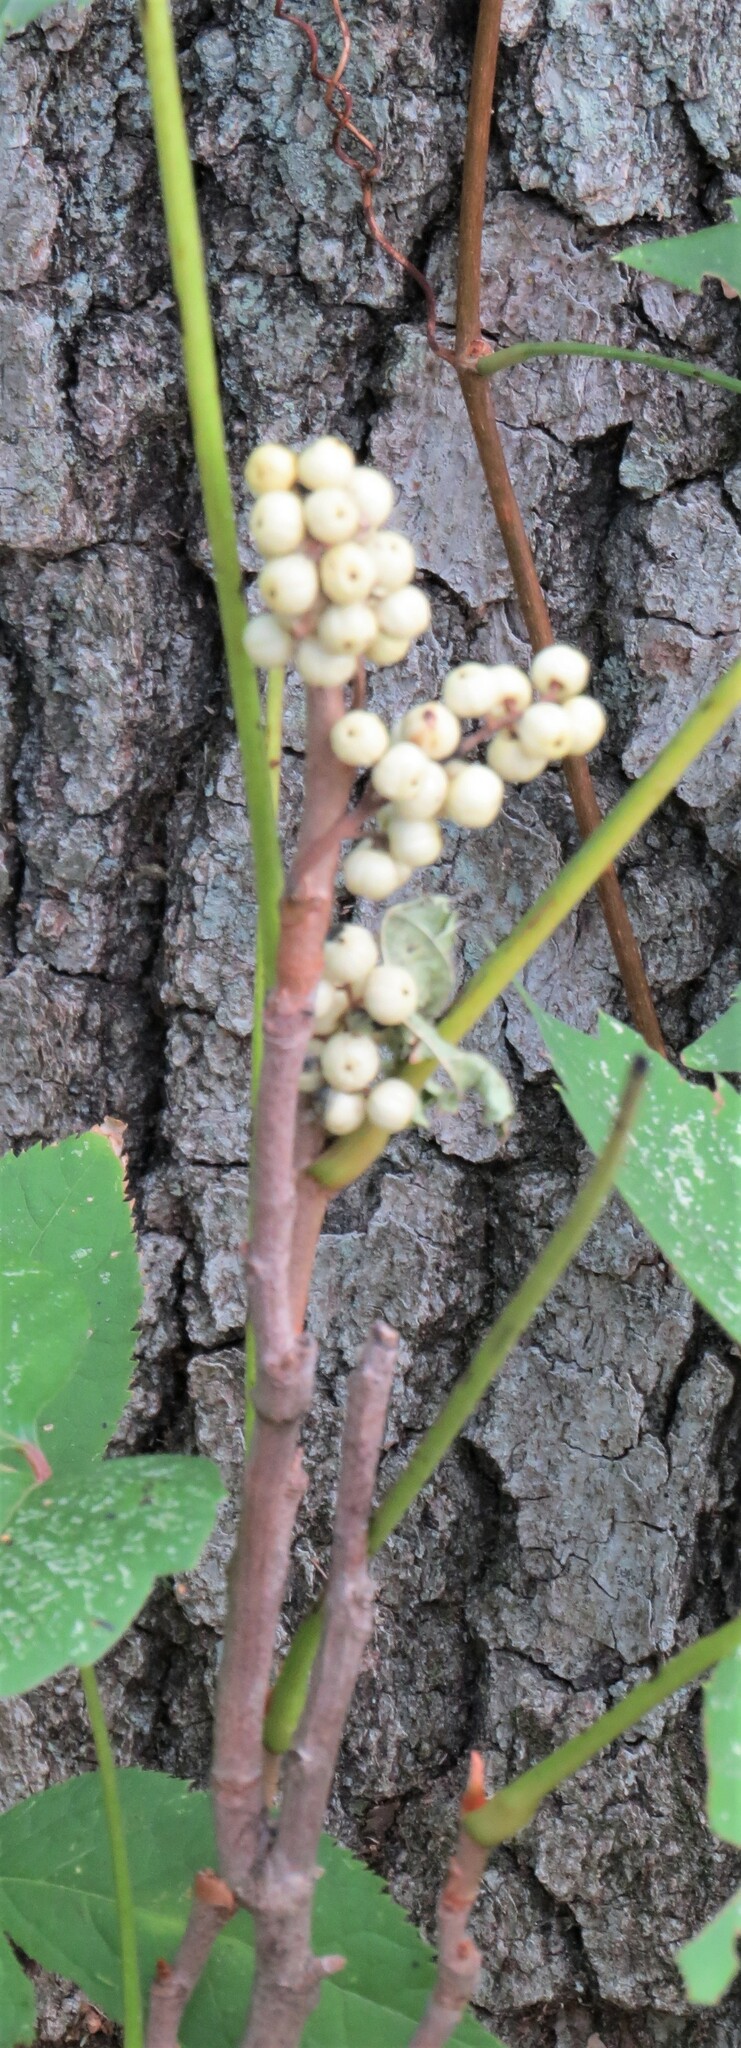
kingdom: Plantae
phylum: Tracheophyta
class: Magnoliopsida
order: Sapindales
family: Anacardiaceae
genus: Toxicodendron
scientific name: Toxicodendron rydbergii
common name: Rydberg's poison-ivy
